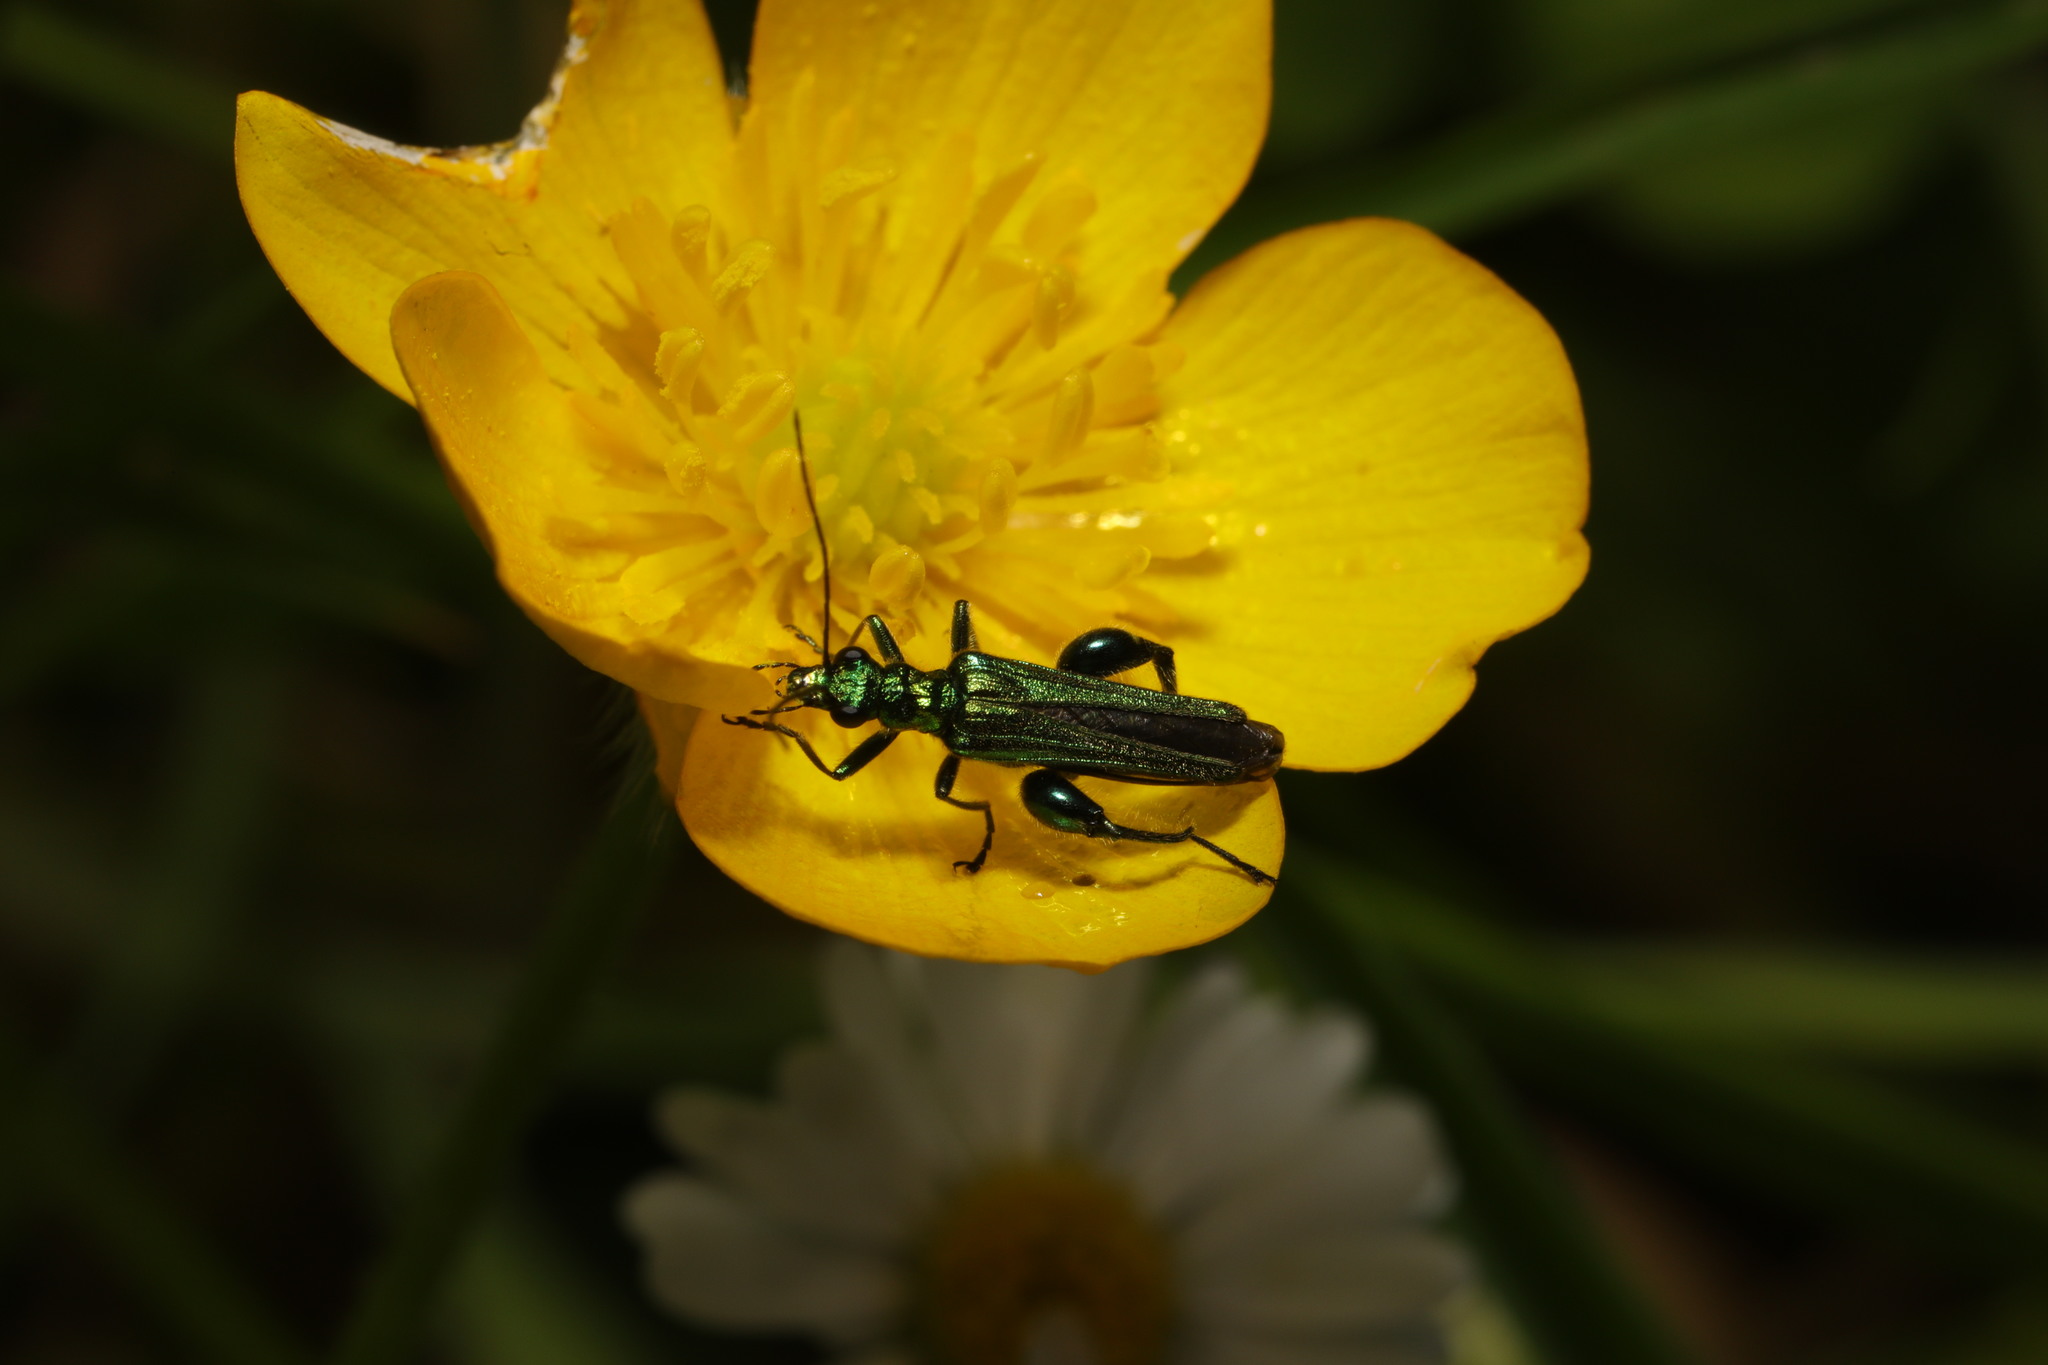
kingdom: Animalia
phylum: Arthropoda
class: Insecta
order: Coleoptera
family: Oedemeridae
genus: Oedemera
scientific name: Oedemera nobilis
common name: Swollen-thighed beetle
